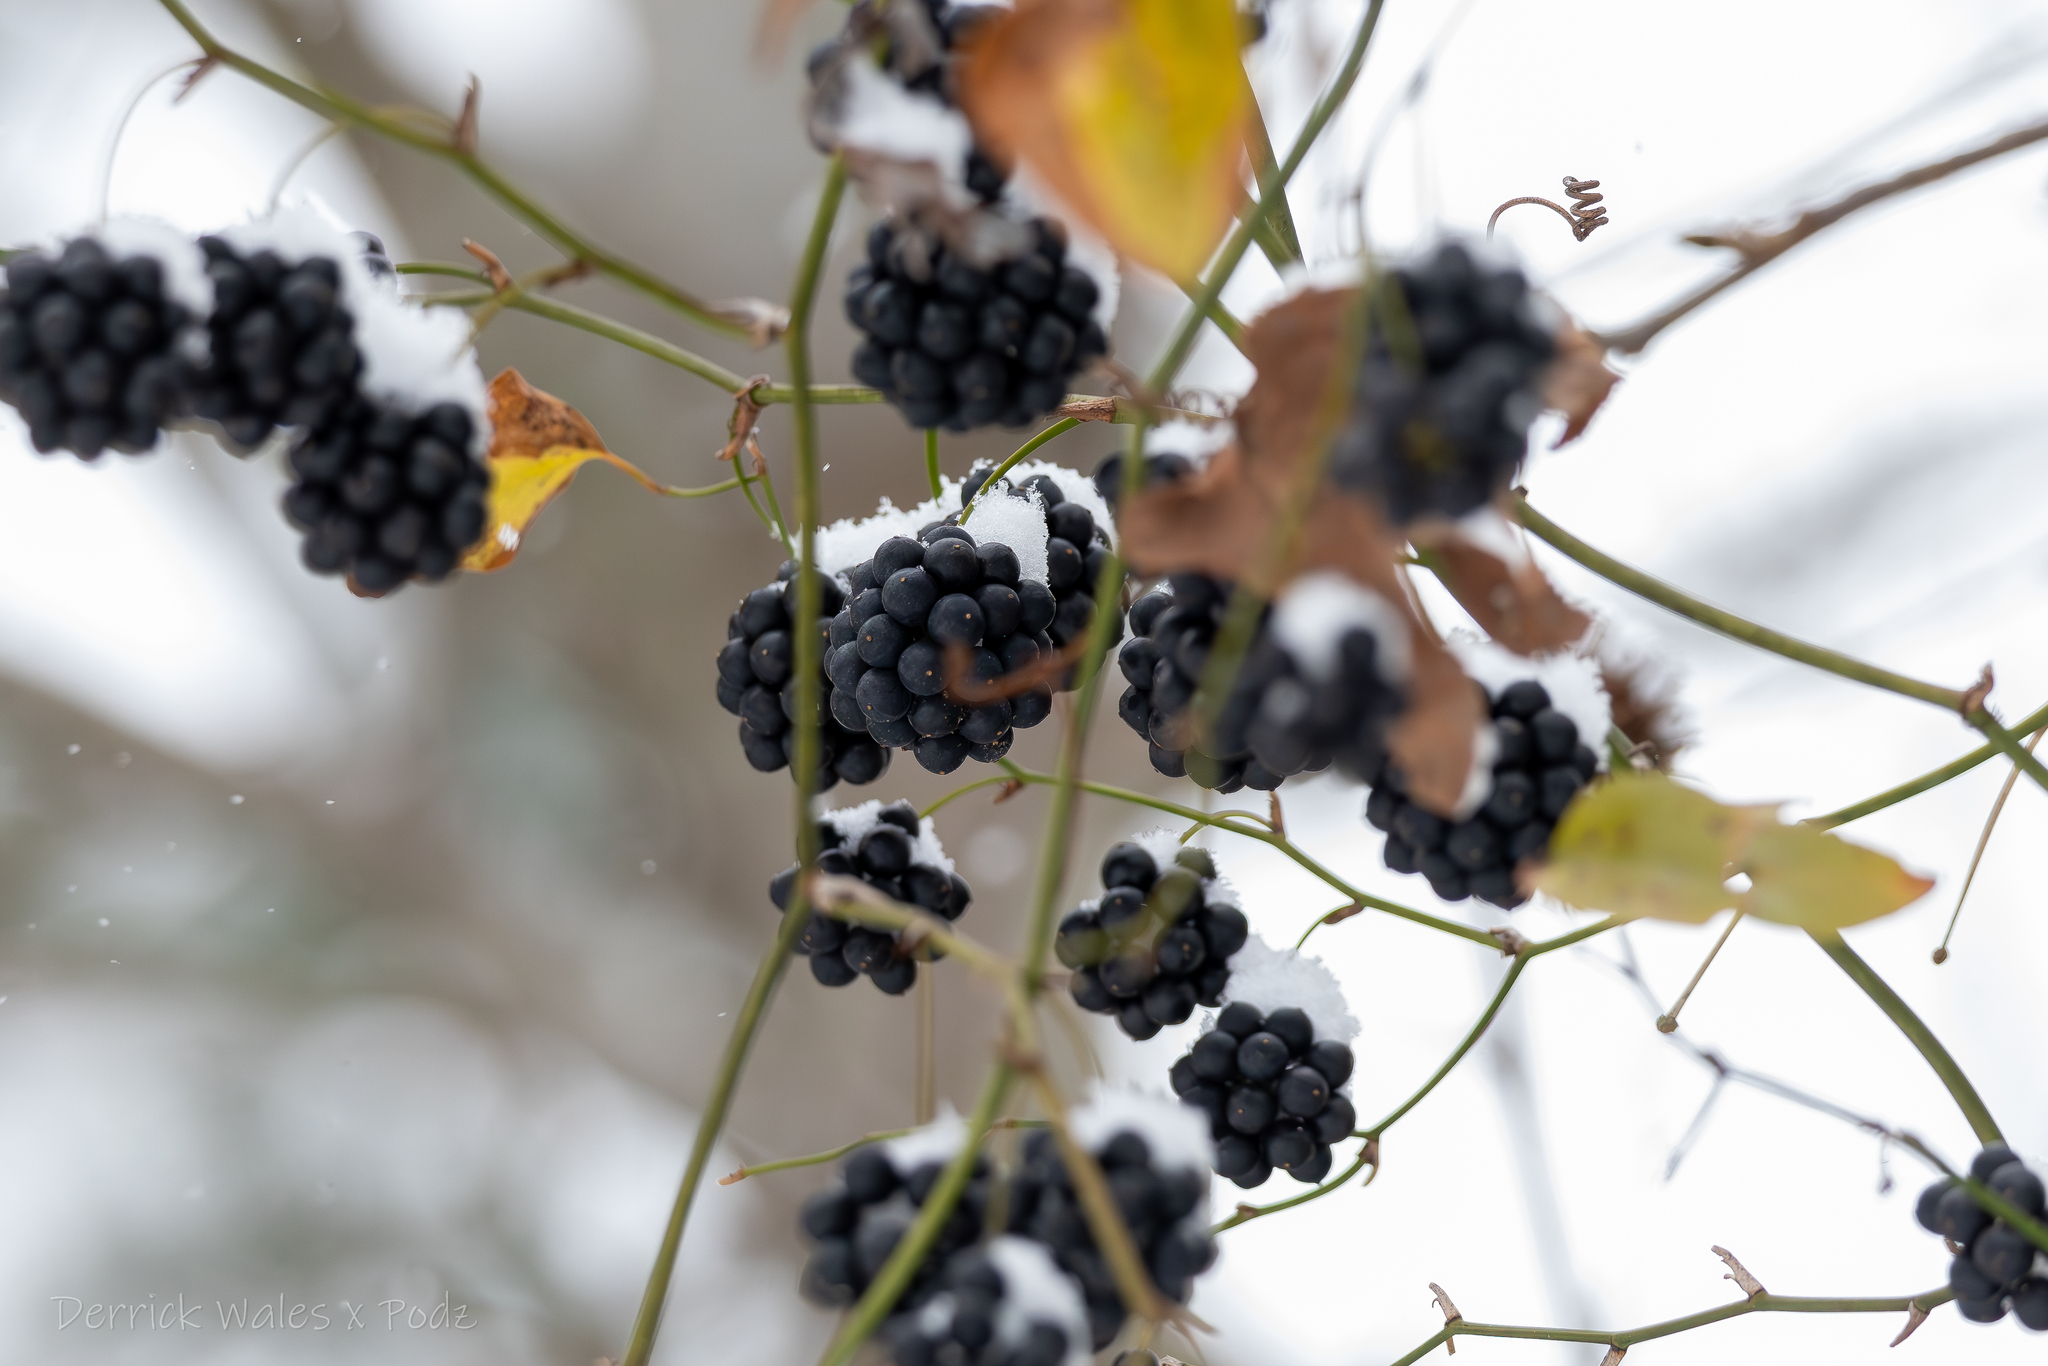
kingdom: Plantae
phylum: Tracheophyta
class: Liliopsida
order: Liliales
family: Smilacaceae
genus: Smilax
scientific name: Smilax bona-nox
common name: Catbrier
